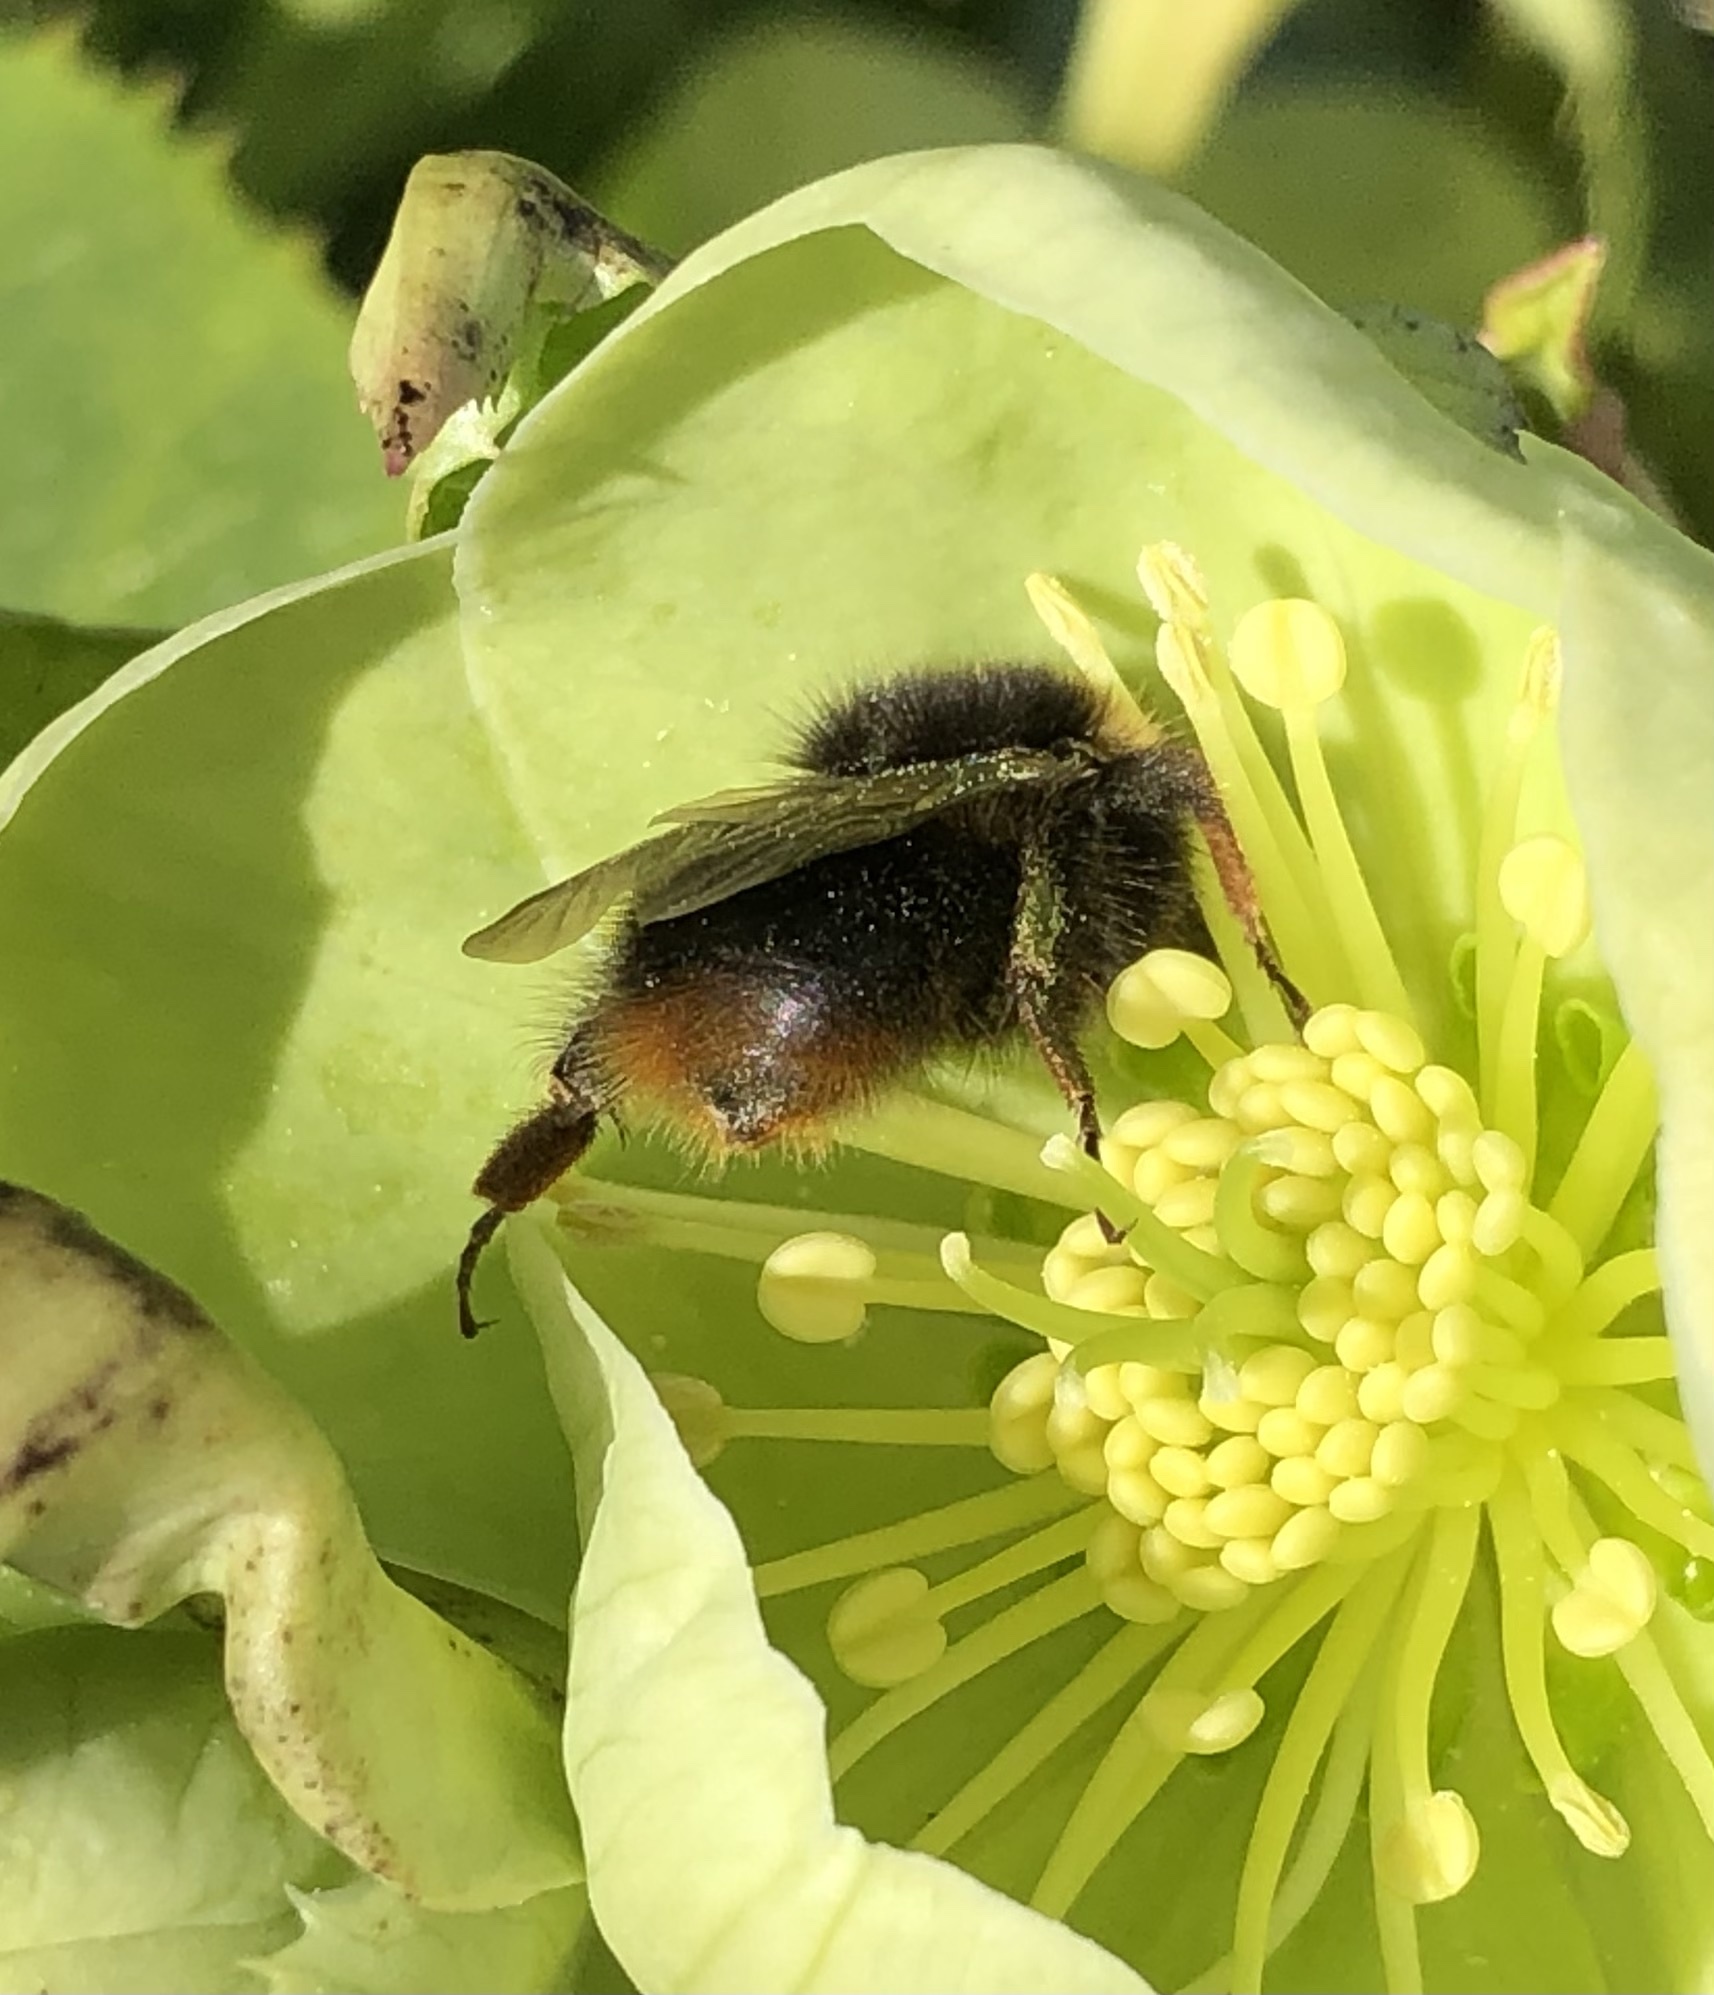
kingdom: Animalia
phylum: Arthropoda
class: Insecta
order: Hymenoptera
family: Apidae
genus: Bombus
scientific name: Bombus pratorum
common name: Early humble-bee
